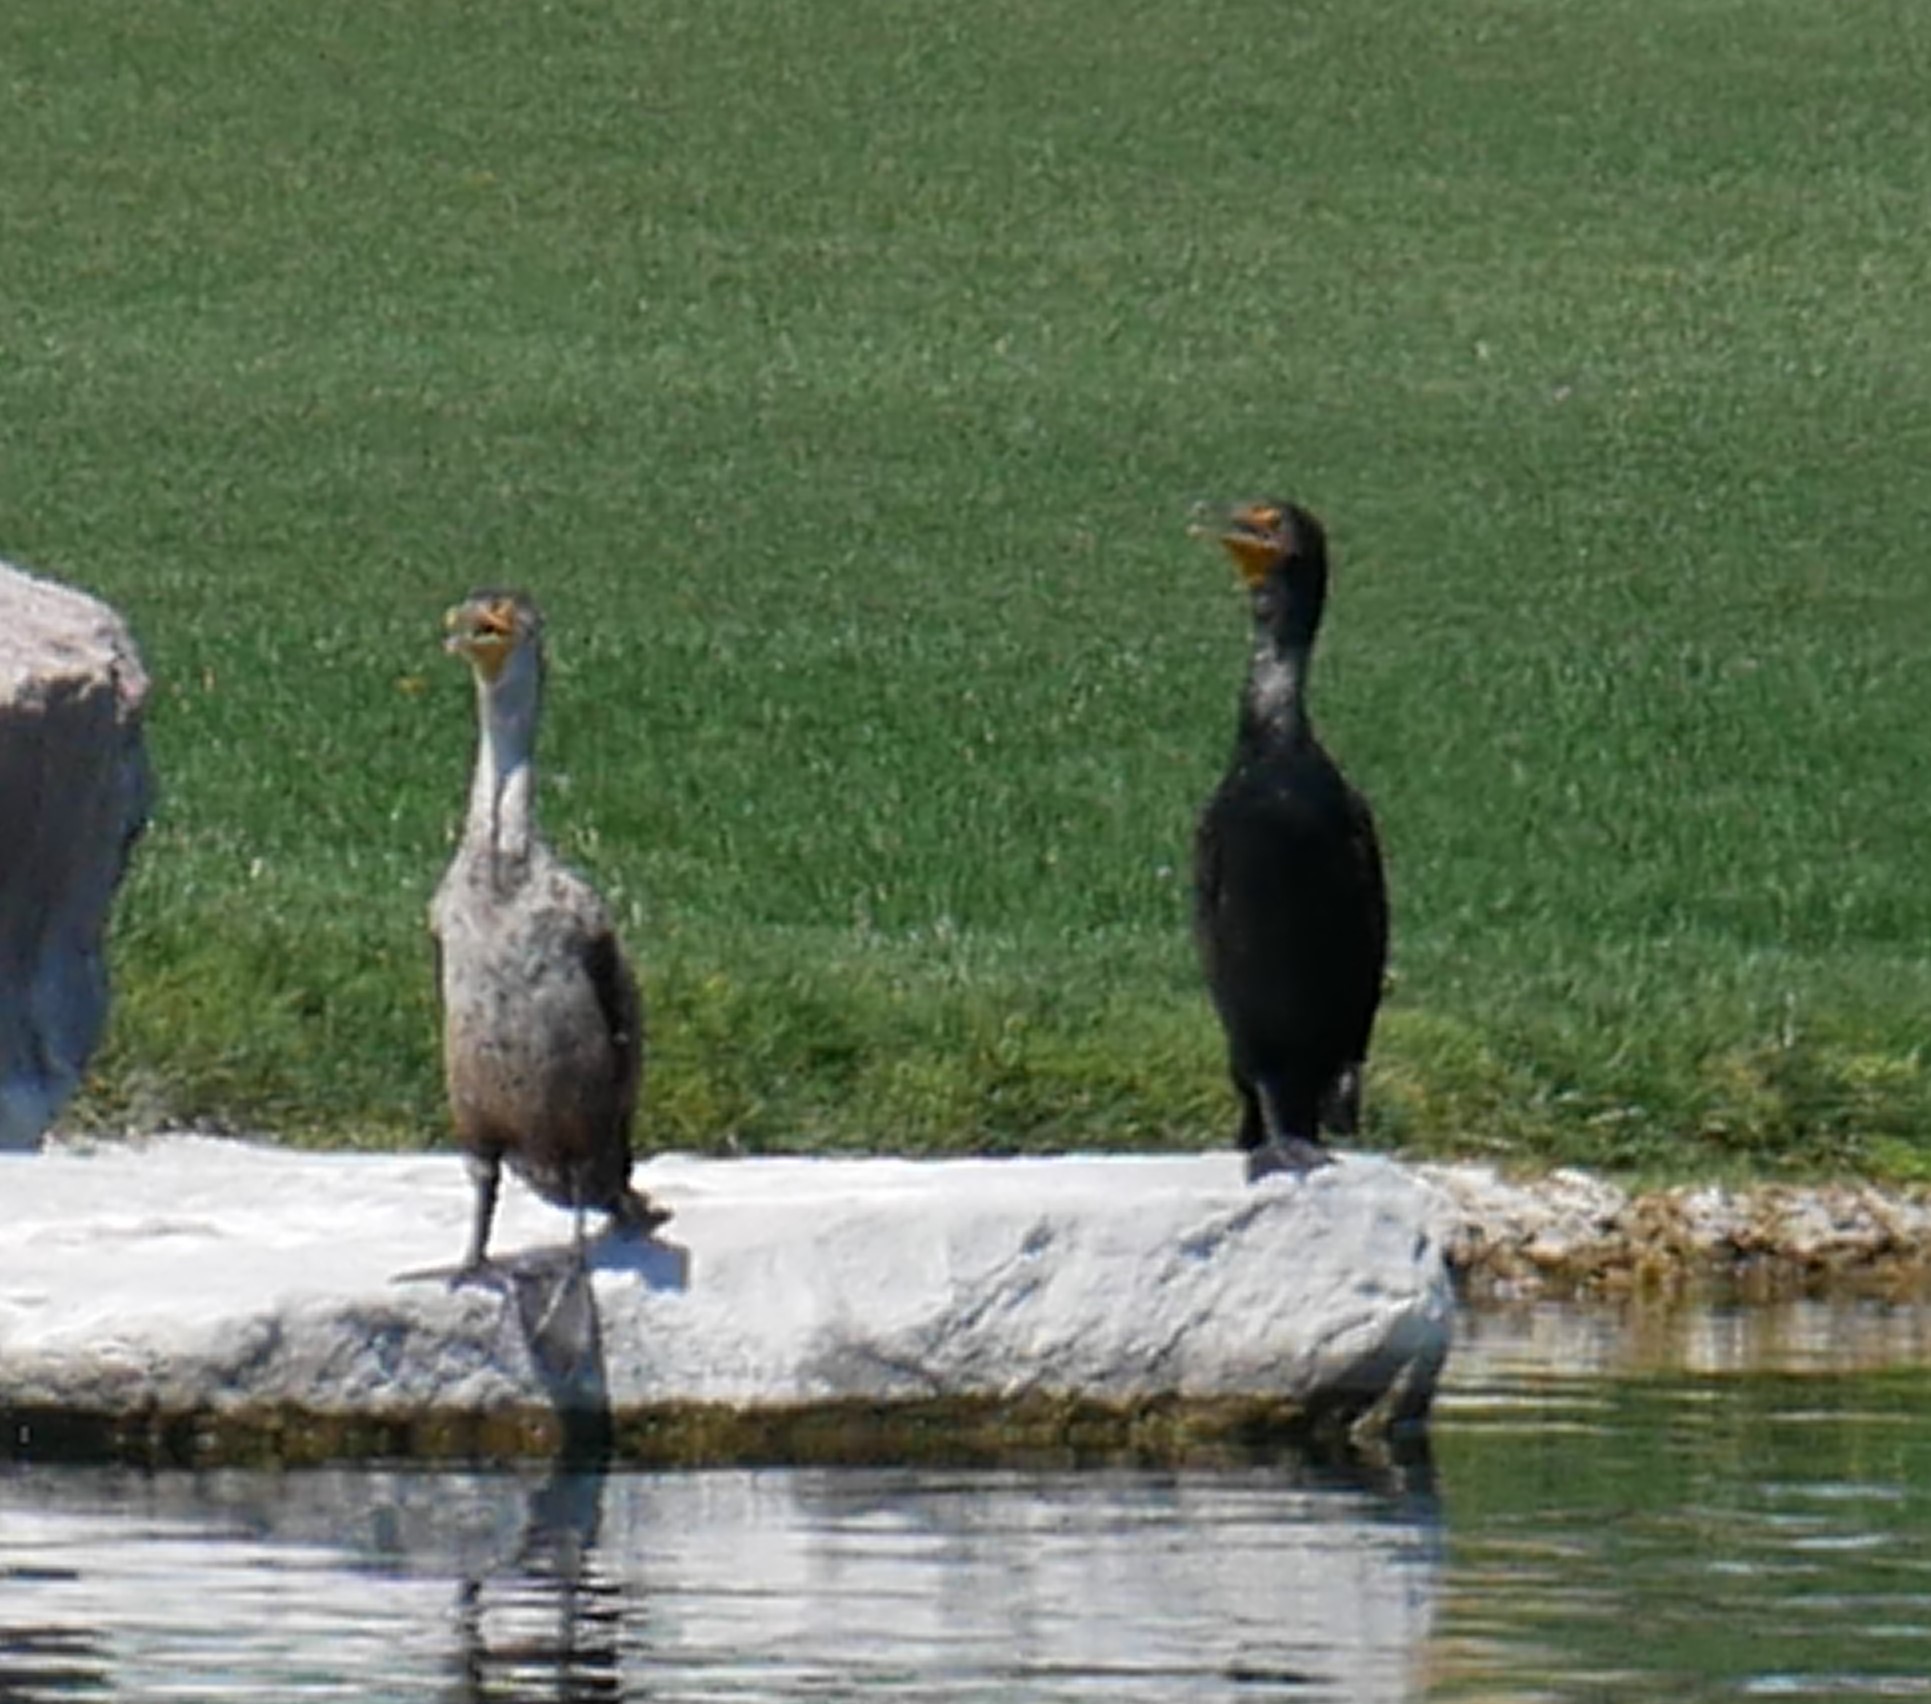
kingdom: Animalia
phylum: Chordata
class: Aves
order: Suliformes
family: Phalacrocoracidae
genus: Phalacrocorax
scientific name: Phalacrocorax auritus
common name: Double-crested cormorant
